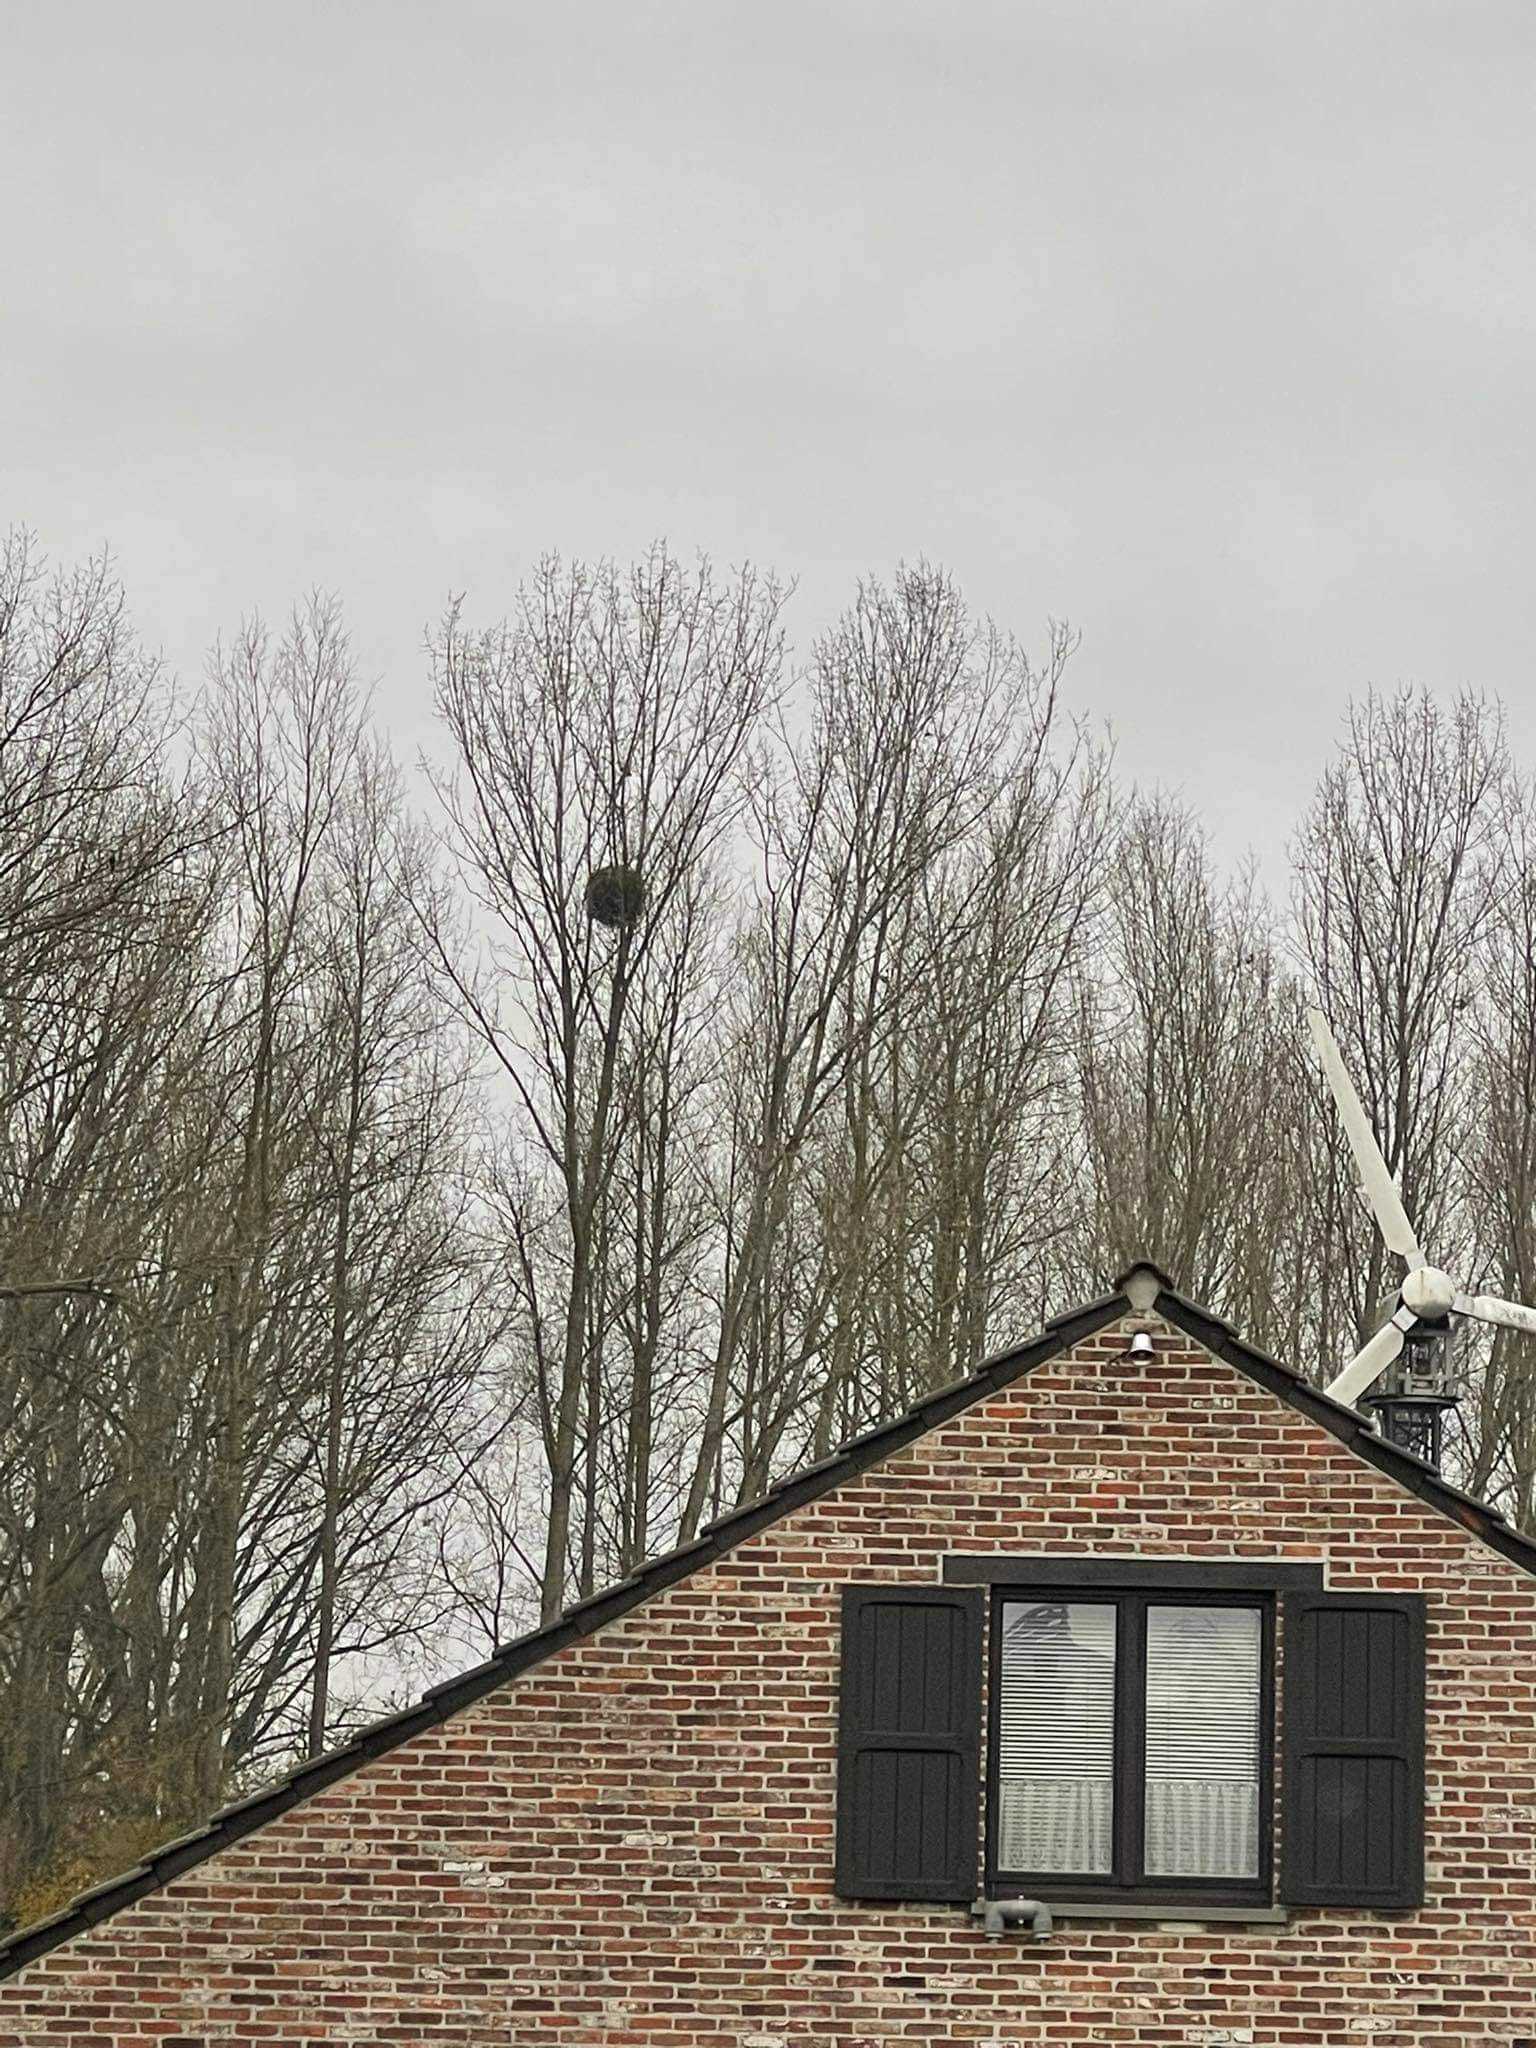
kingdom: Plantae
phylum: Tracheophyta
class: Magnoliopsida
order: Santalales
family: Viscaceae
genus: Viscum
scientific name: Viscum album
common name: Mistletoe
